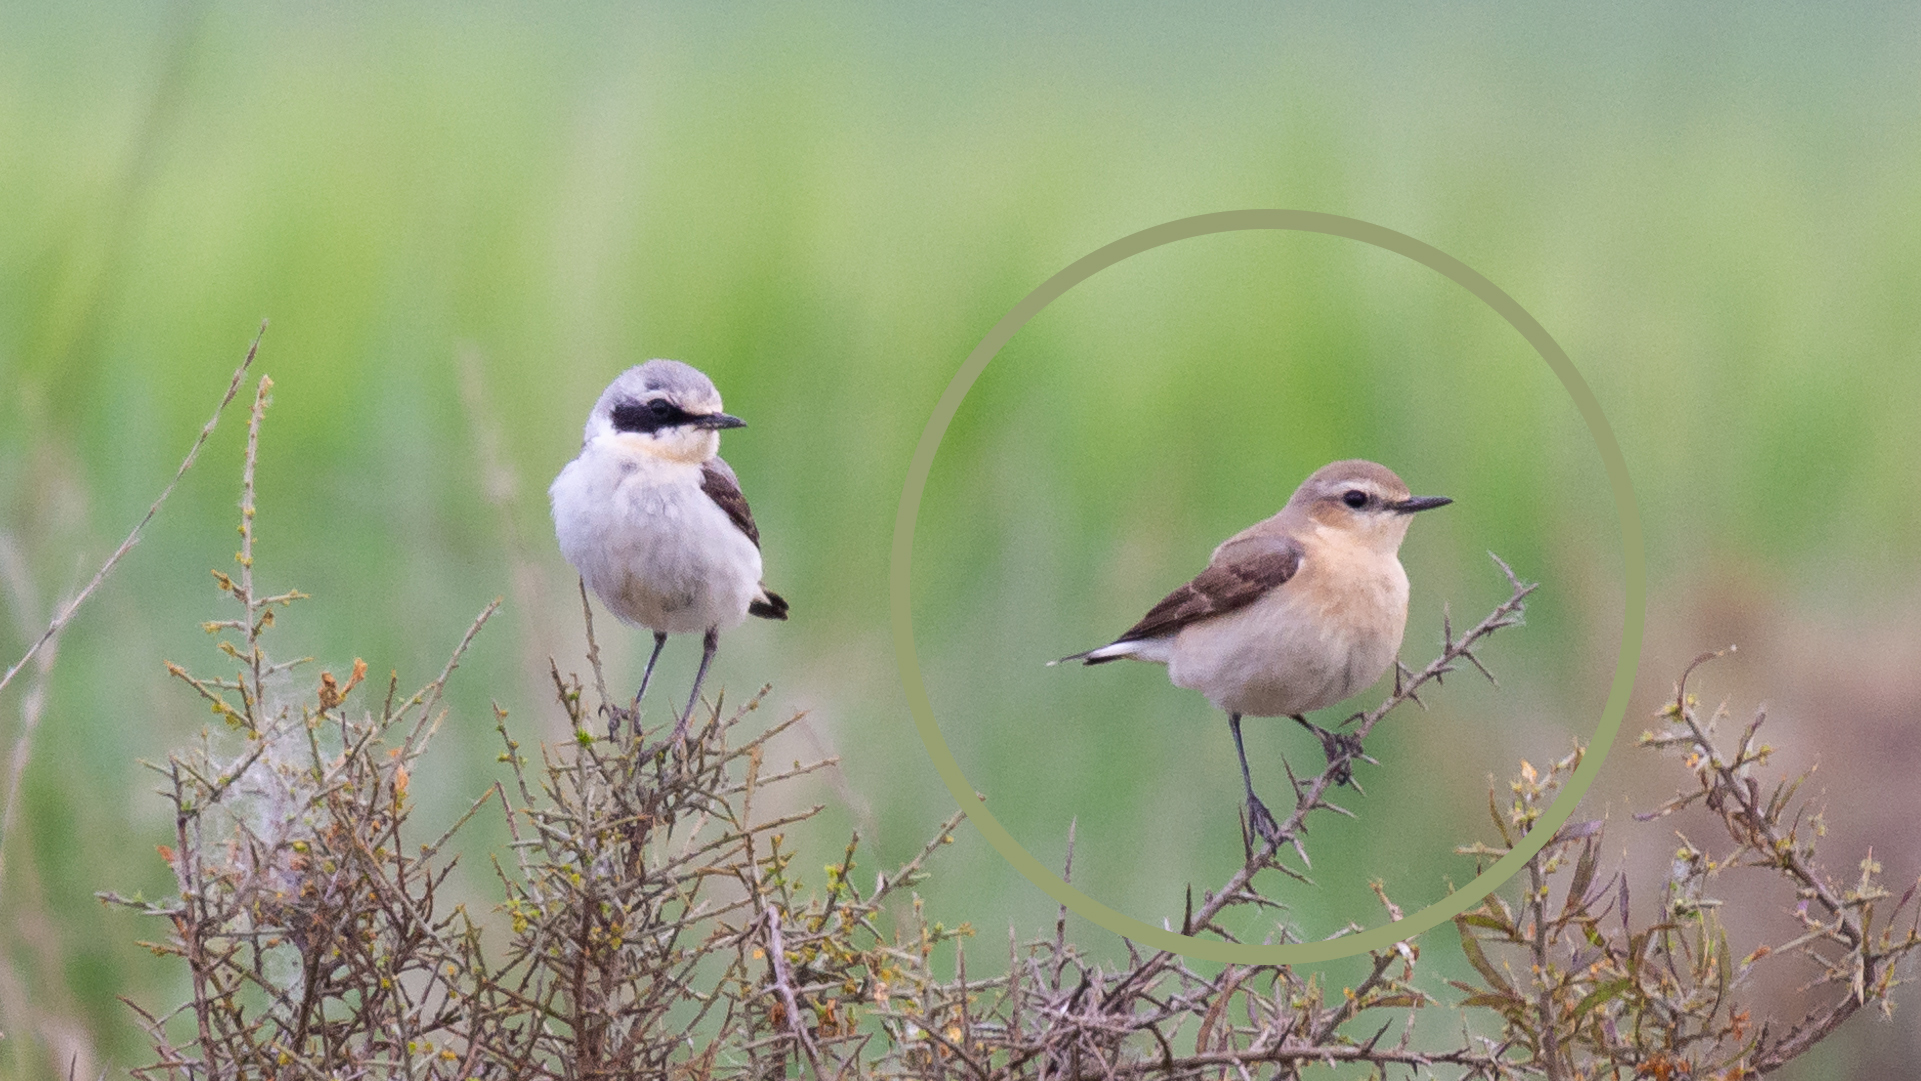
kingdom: Animalia
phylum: Chordata
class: Aves
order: Passeriformes
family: Muscicapidae
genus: Oenanthe
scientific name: Oenanthe oenanthe
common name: Northern wheatear
